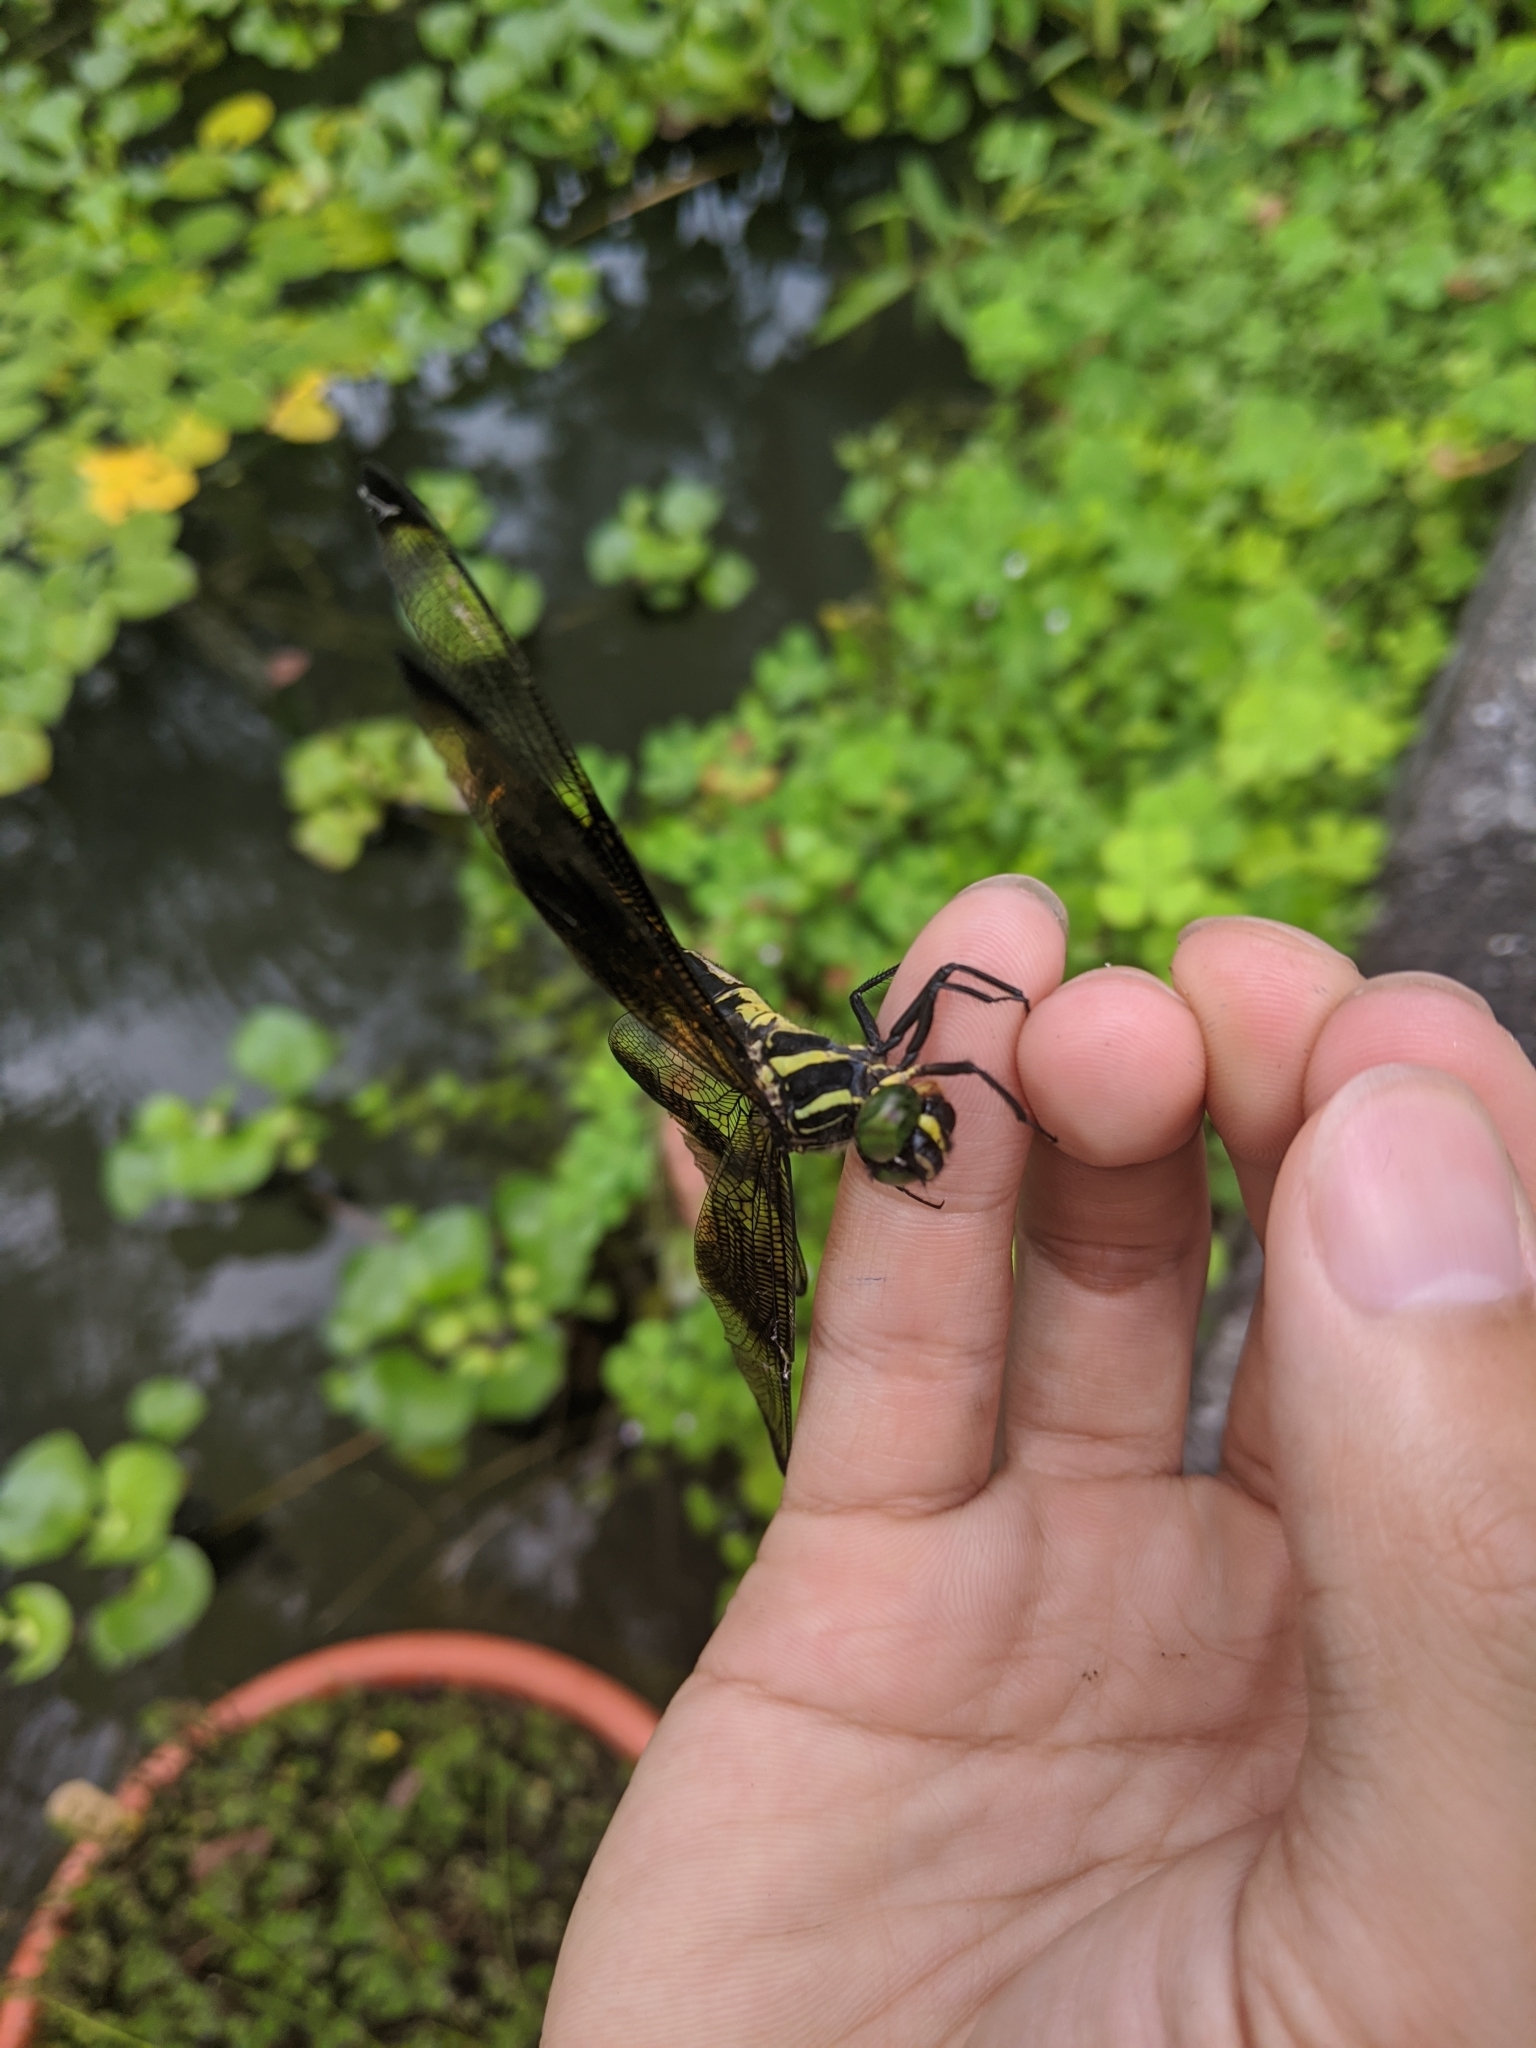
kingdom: Animalia
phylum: Arthropoda
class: Insecta
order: Odonata
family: Chlorogomphidae
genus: Chlorogomphus
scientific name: Chlorogomphus risi
